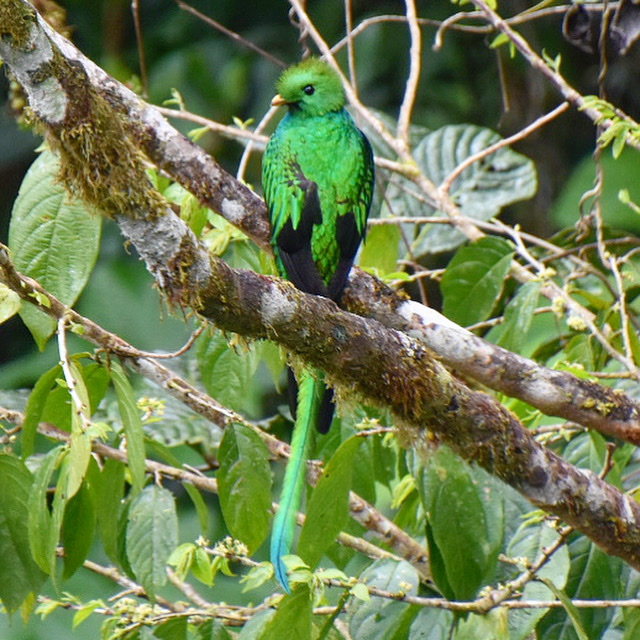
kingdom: Animalia
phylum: Chordata
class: Aves
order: Trogoniformes
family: Trogonidae
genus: Pharomachrus
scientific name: Pharomachrus mocinno
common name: Resplendent quetzal
